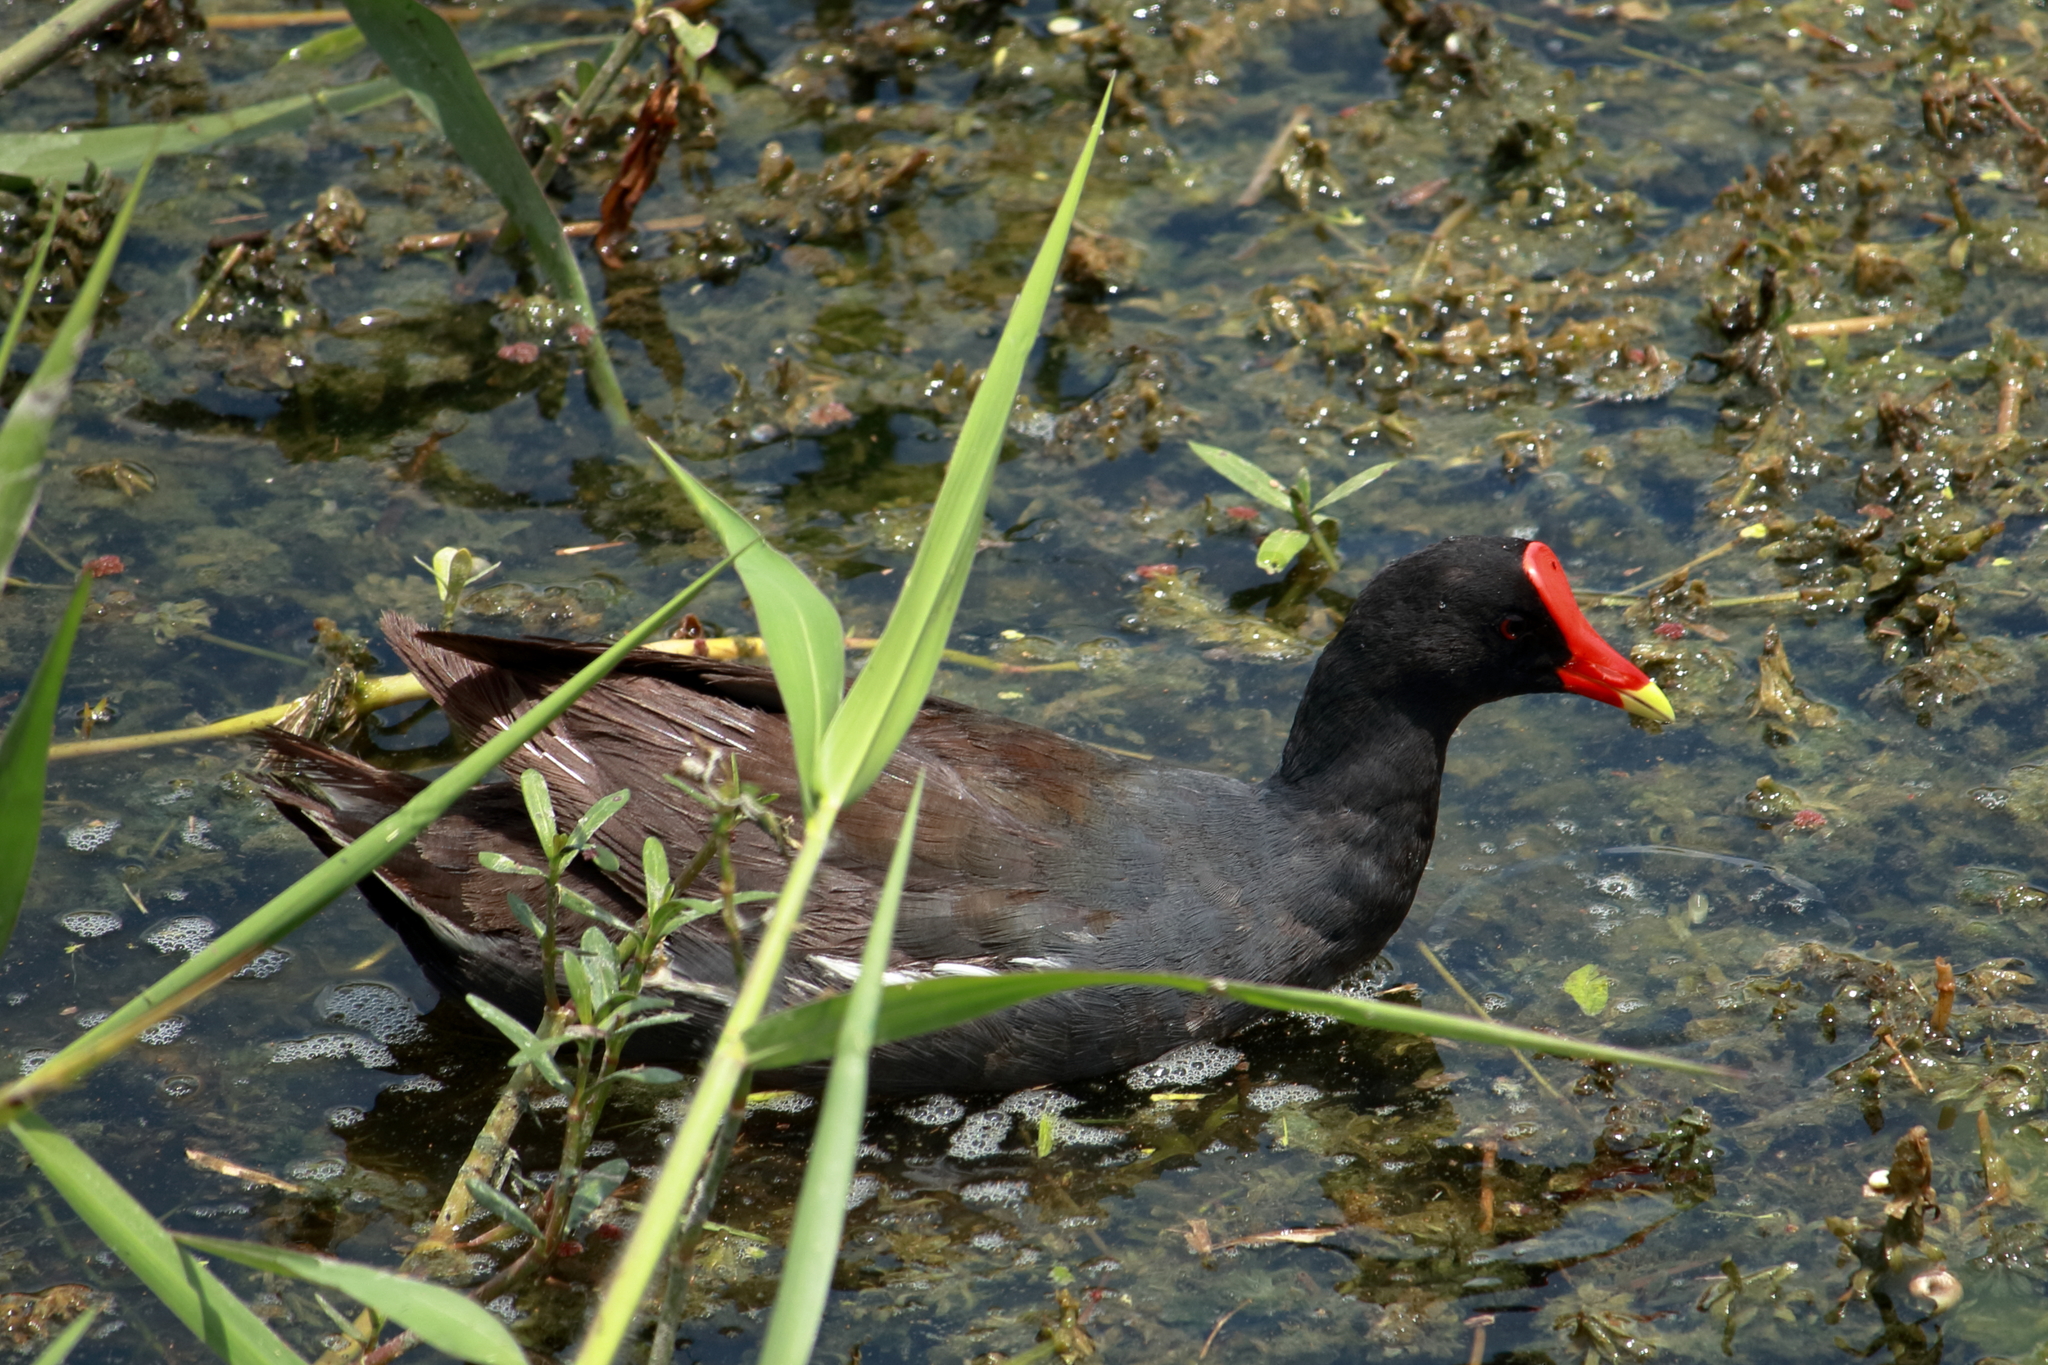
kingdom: Animalia
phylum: Chordata
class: Aves
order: Gruiformes
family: Rallidae
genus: Gallinula
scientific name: Gallinula chloropus
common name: Common moorhen
